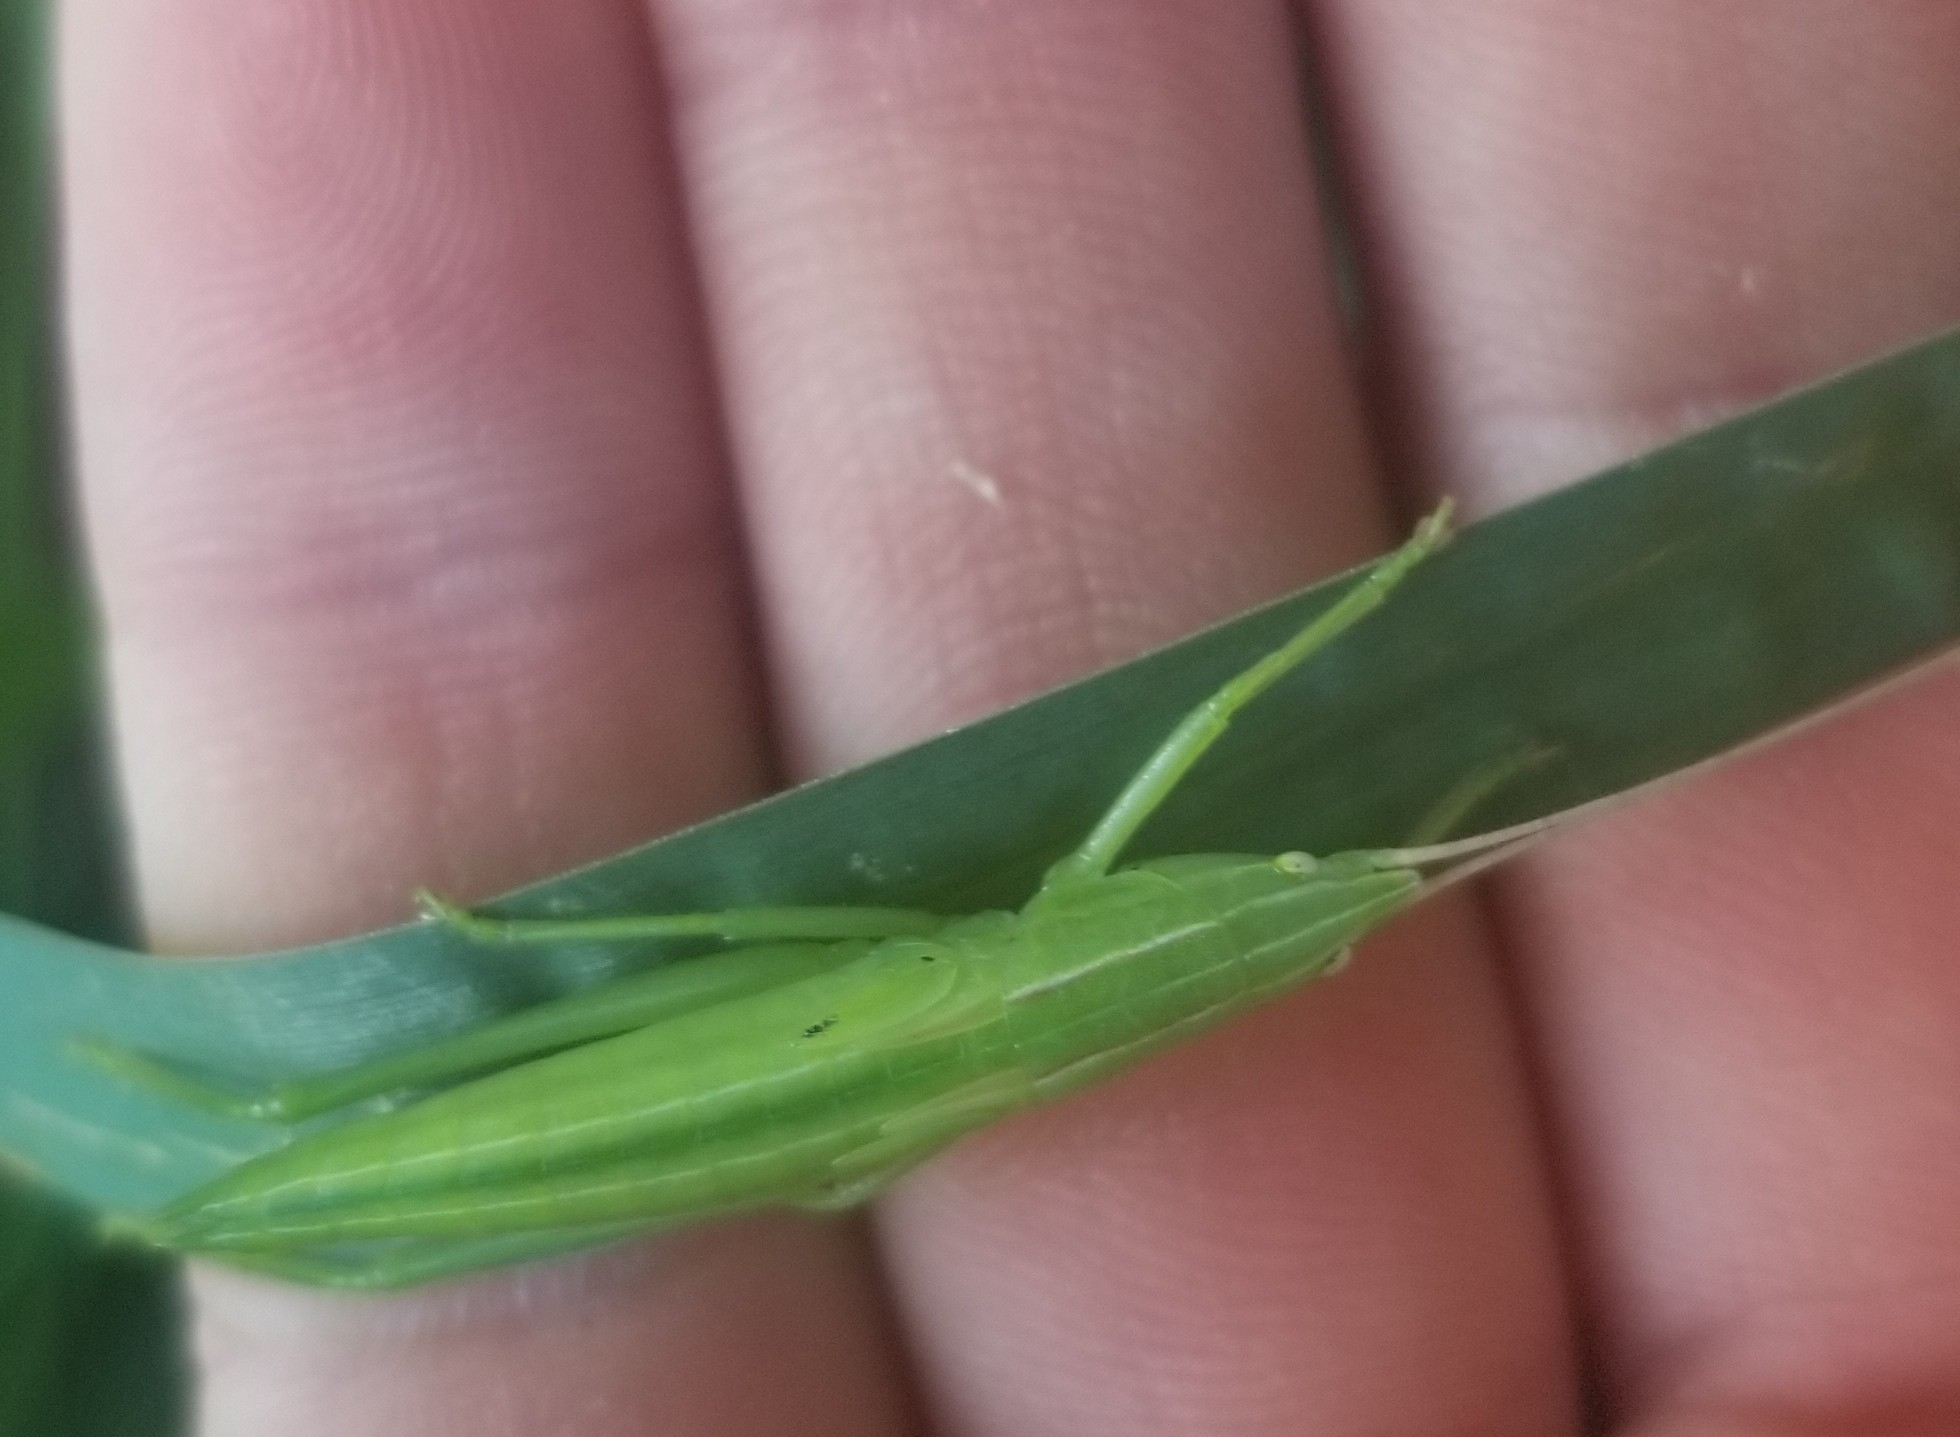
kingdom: Animalia
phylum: Arthropoda
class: Insecta
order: Orthoptera
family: Tettigoniidae
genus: Neoconocephalus
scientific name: Neoconocephalus ensiger
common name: Swordbearer
